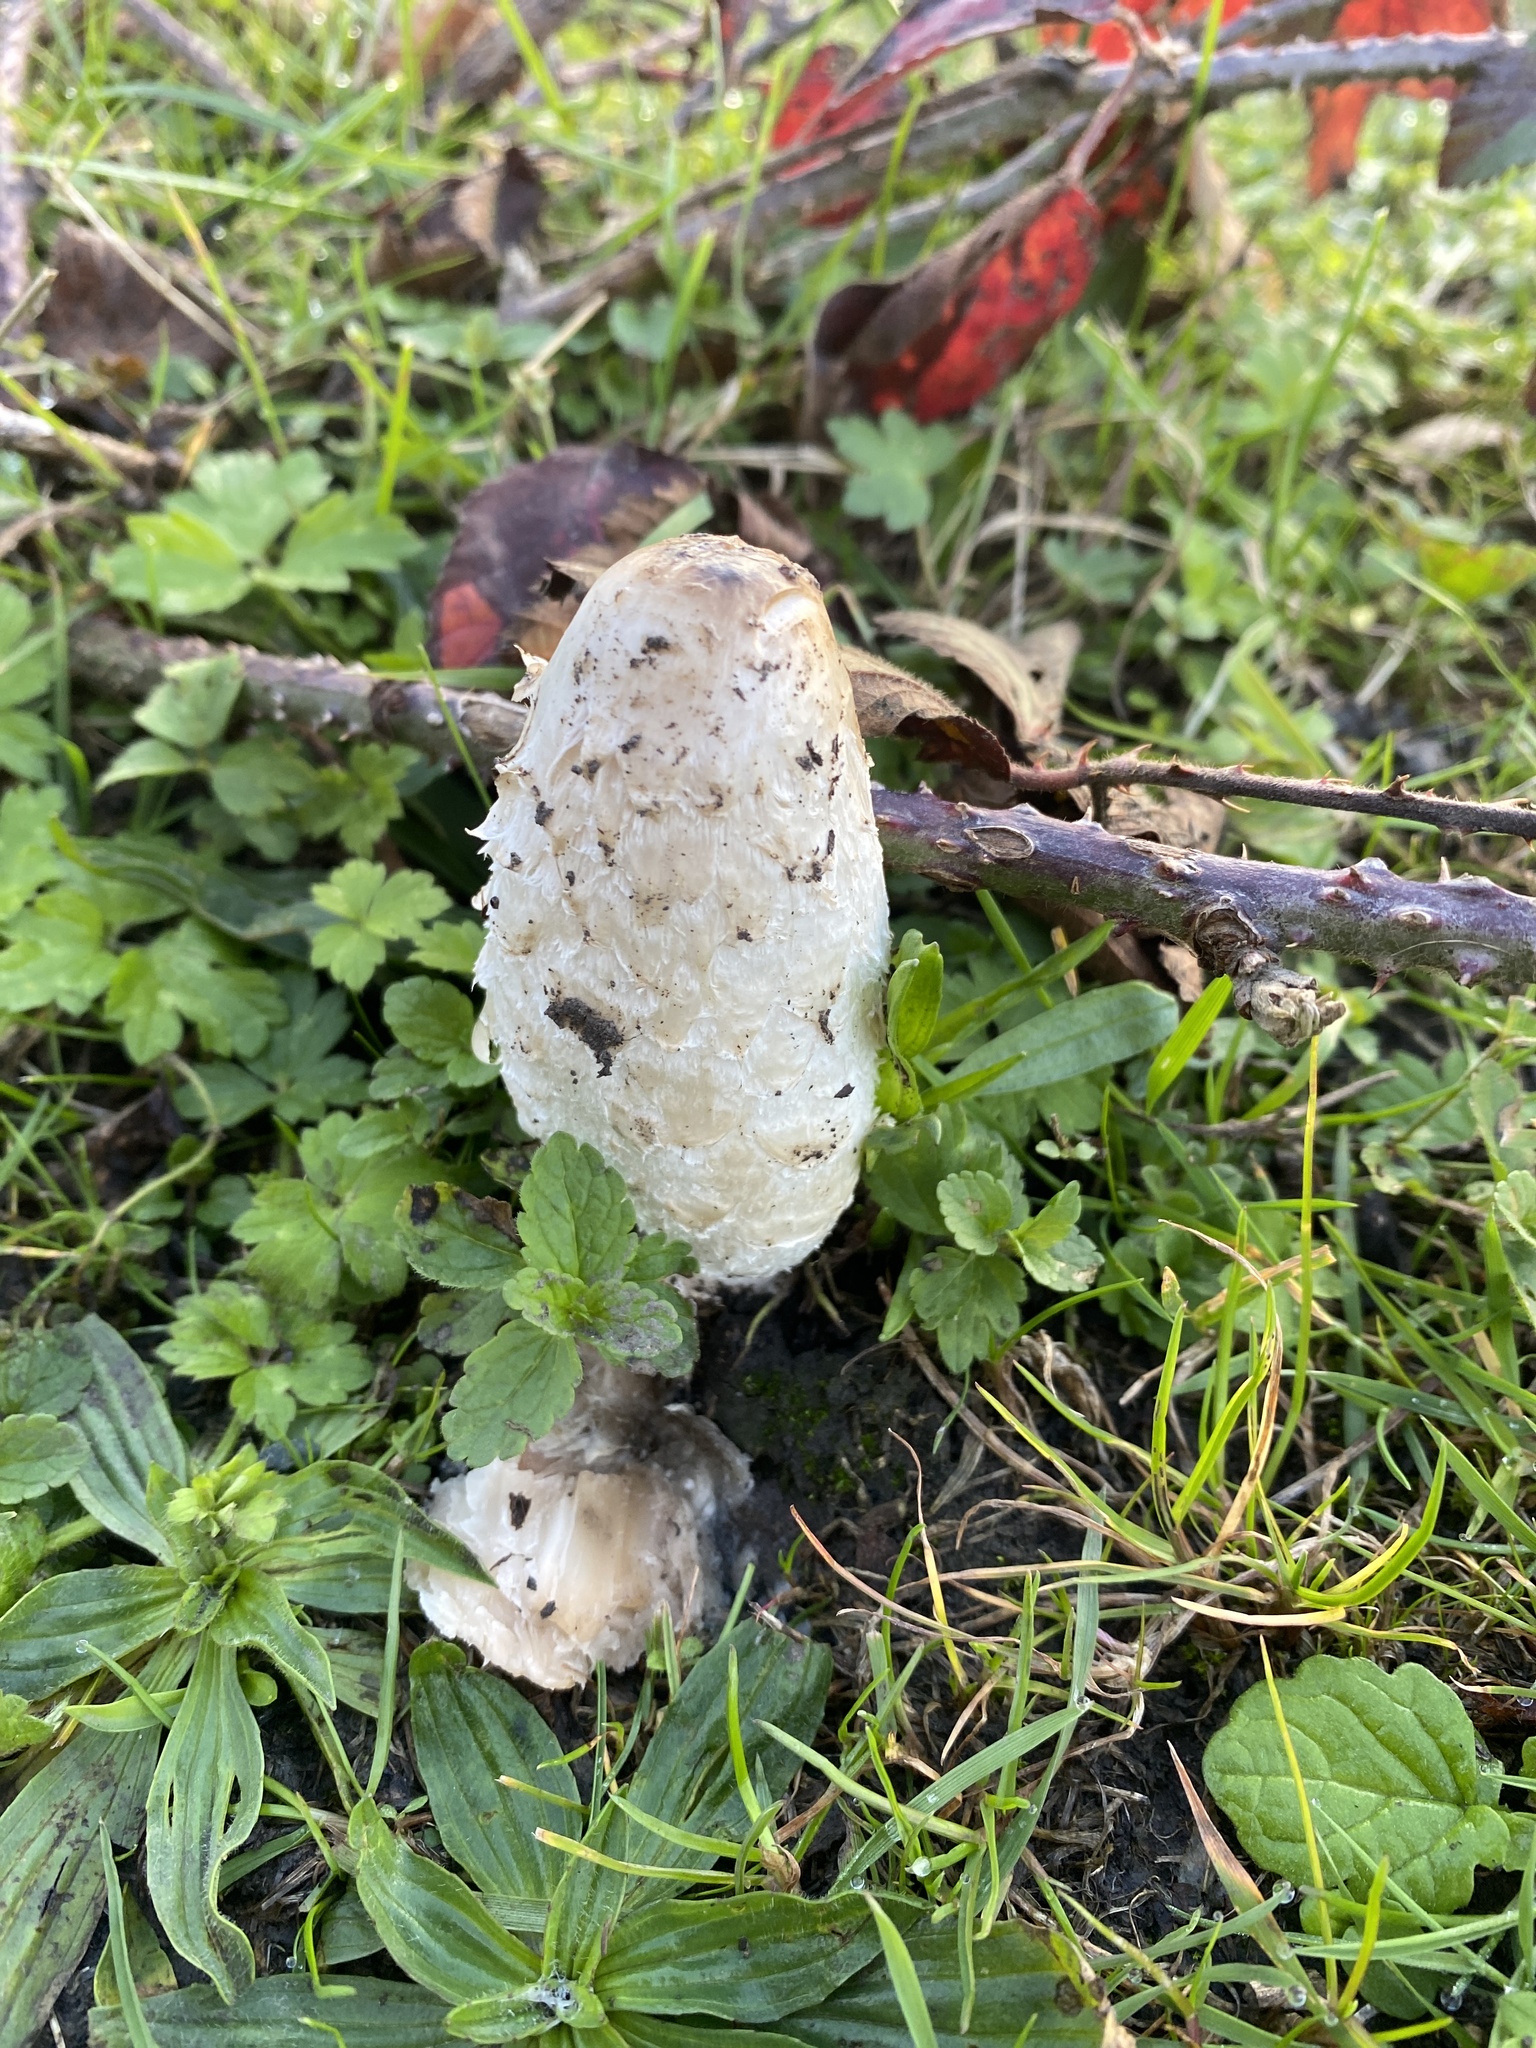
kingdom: Fungi
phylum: Basidiomycota
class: Agaricomycetes
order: Agaricales
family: Agaricaceae
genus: Coprinus
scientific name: Coprinus comatus
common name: Lawyer's wig
